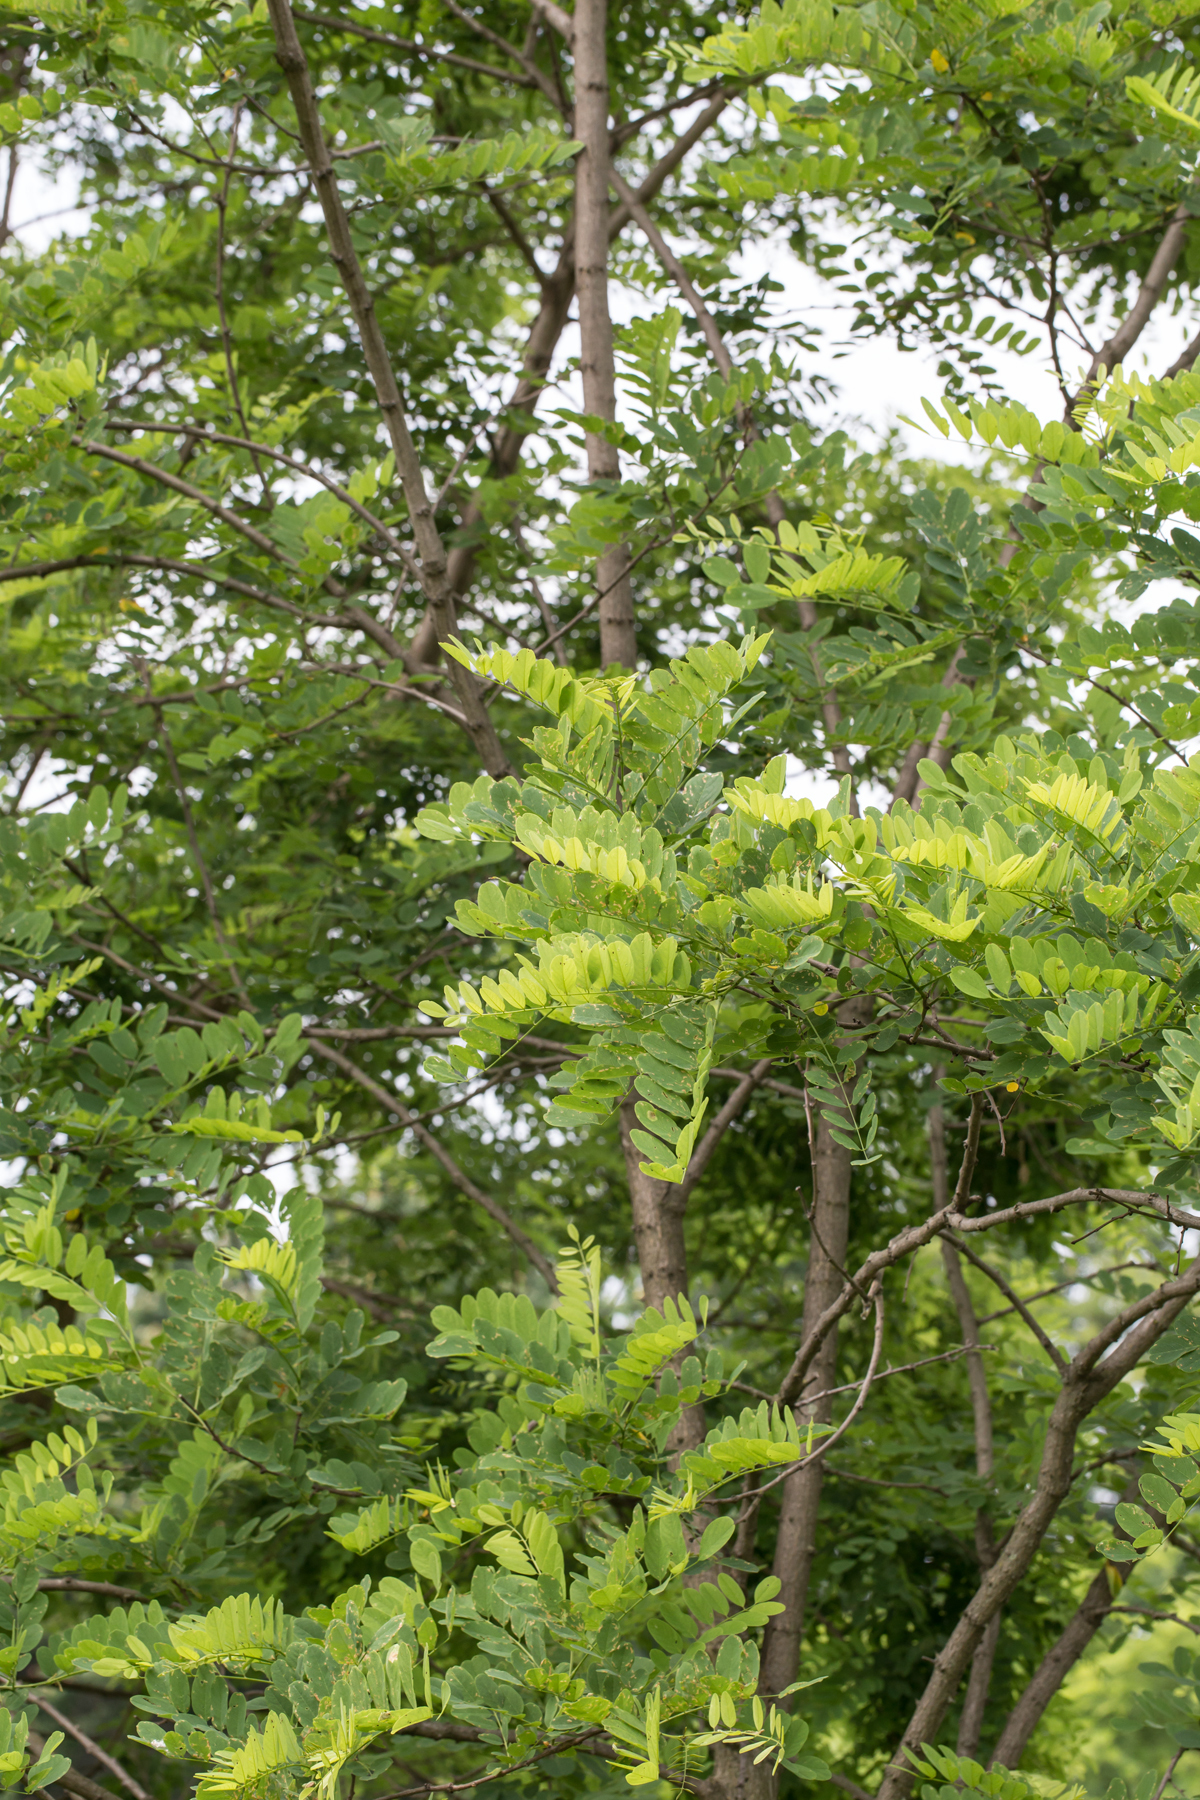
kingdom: Plantae
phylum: Tracheophyta
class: Magnoliopsida
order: Fabales
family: Fabaceae
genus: Robinia
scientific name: Robinia pseudoacacia
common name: Black locust
